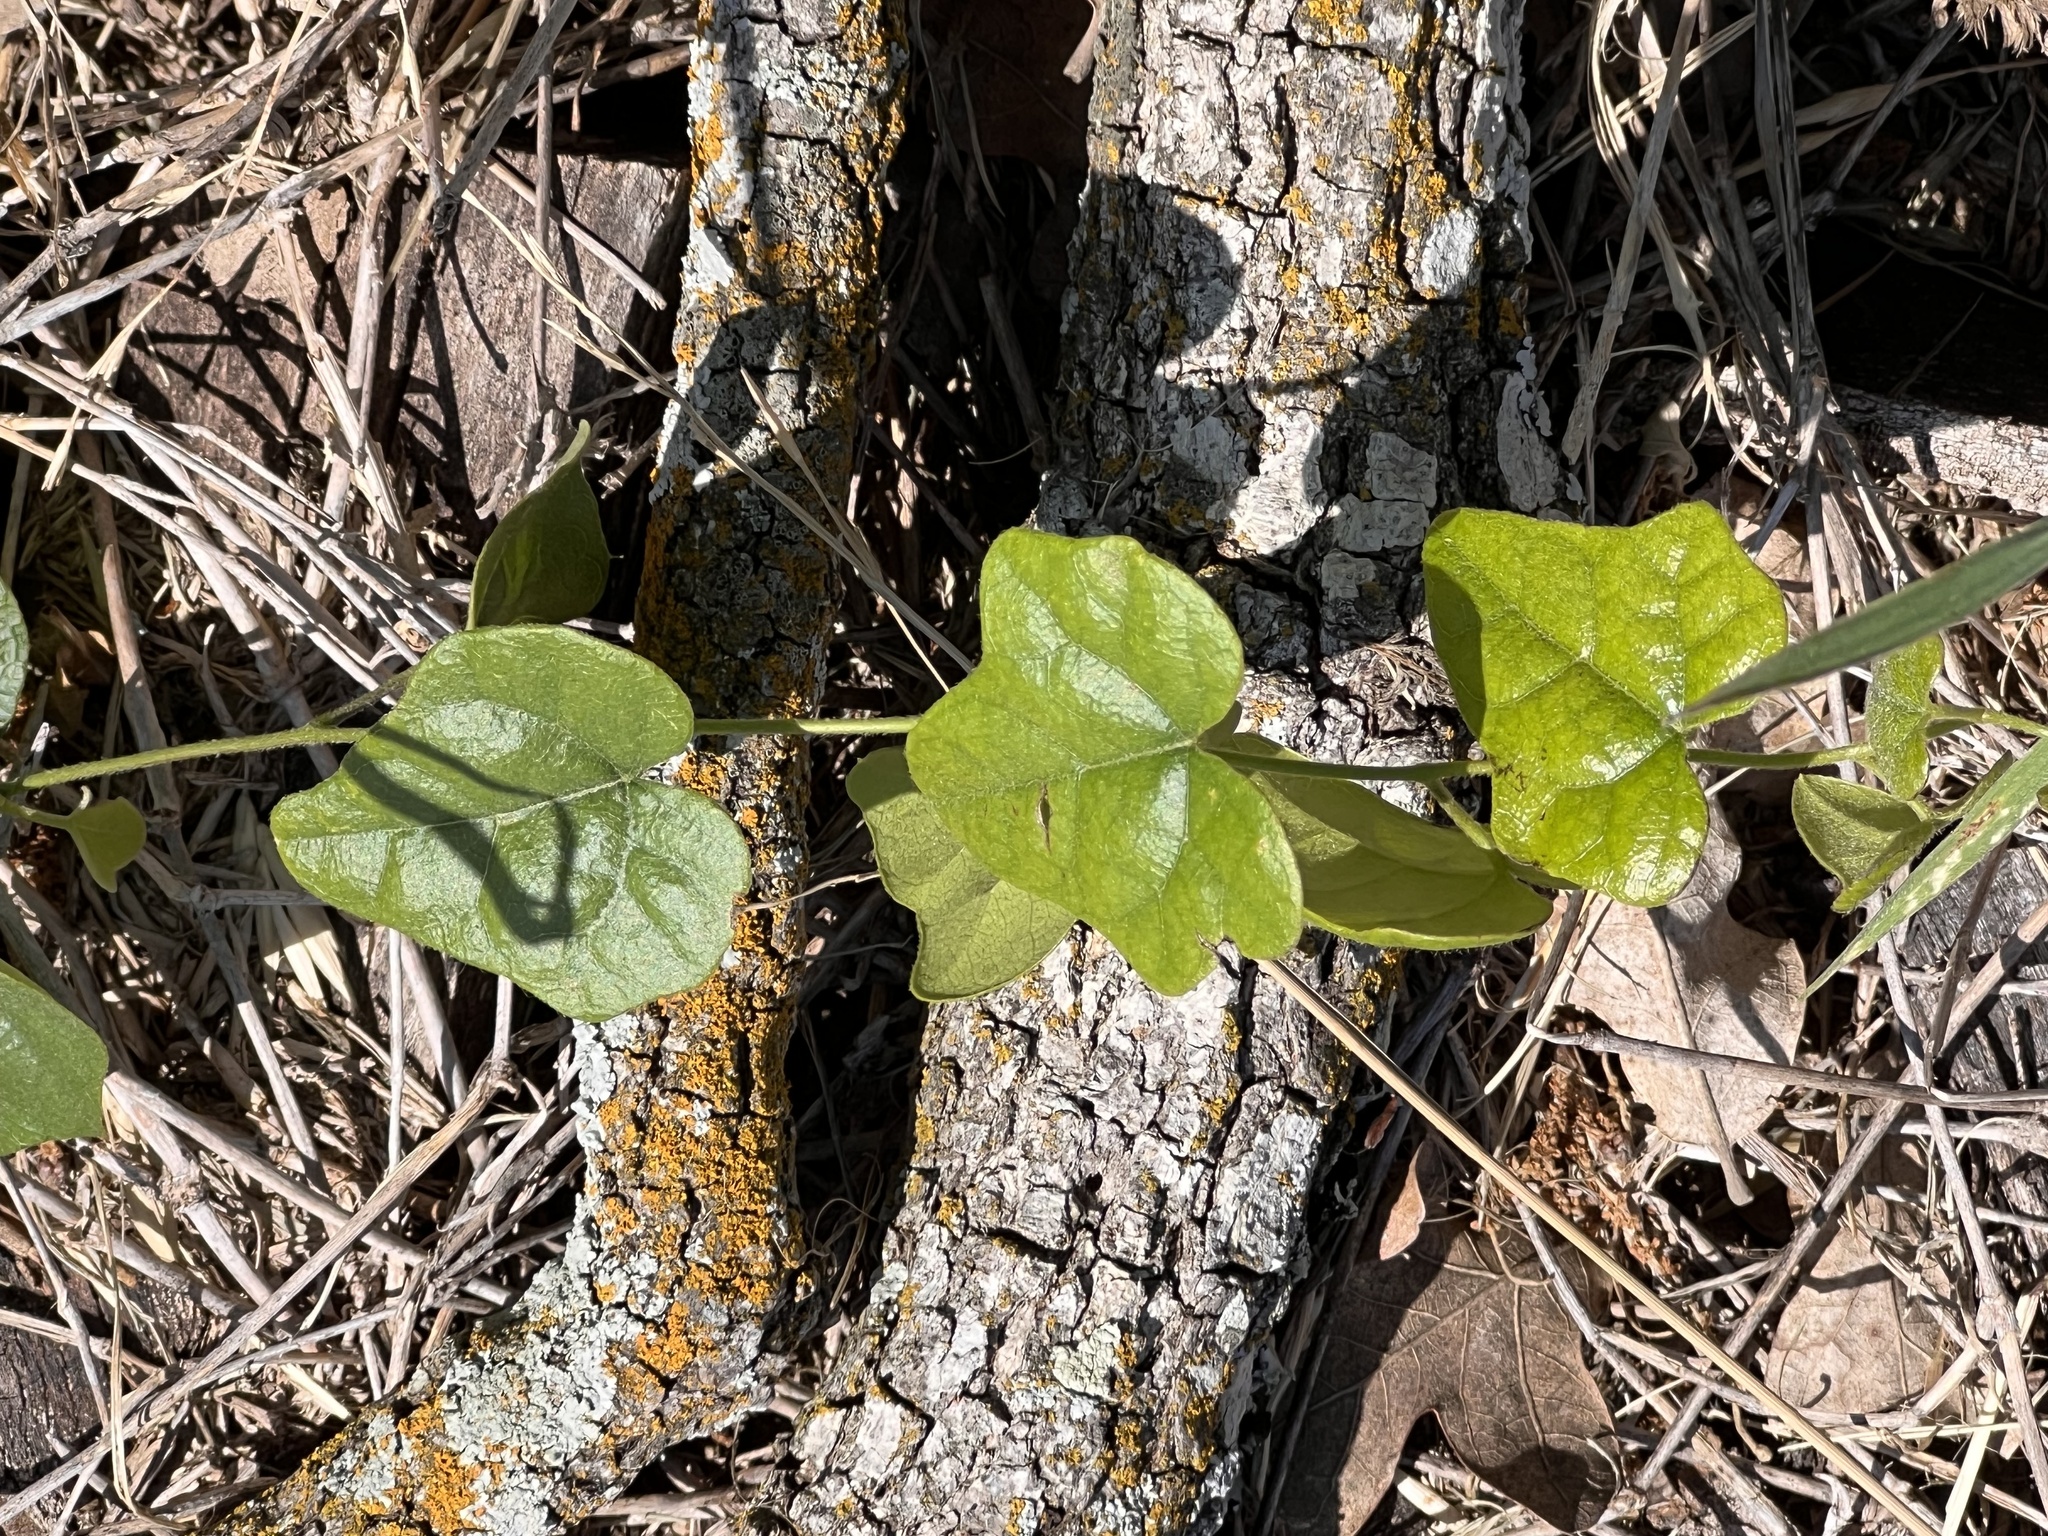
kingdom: Plantae
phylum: Tracheophyta
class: Magnoliopsida
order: Ranunculales
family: Menispermaceae
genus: Cocculus
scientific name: Cocculus carolinus
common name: Carolina moonseed
